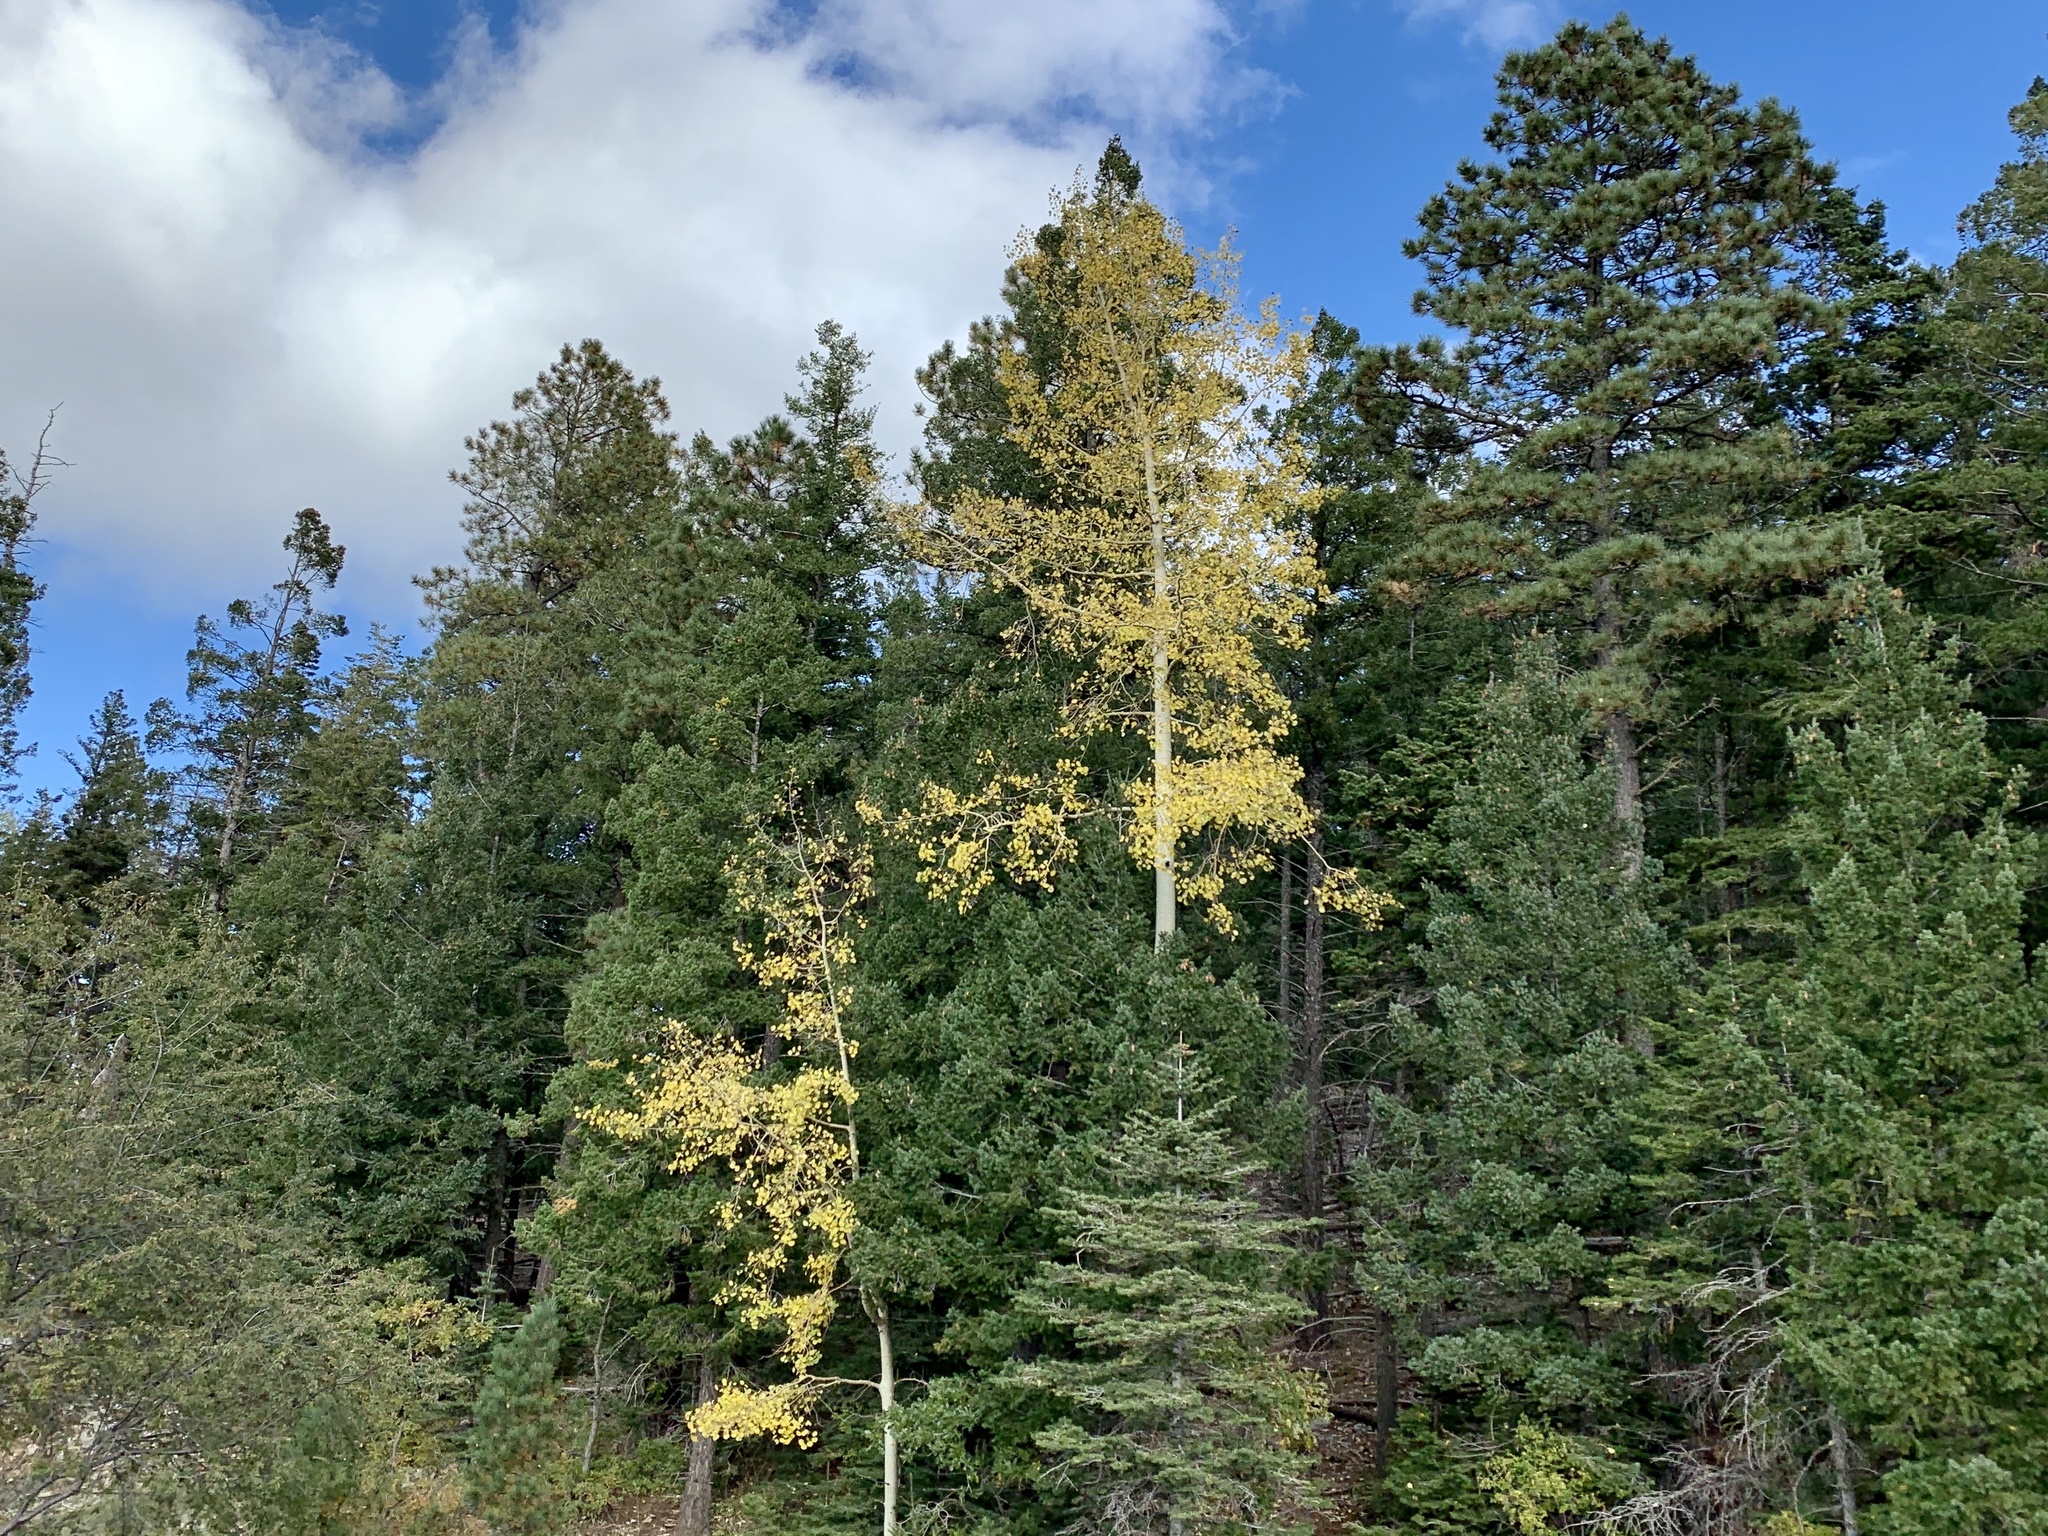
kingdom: Plantae
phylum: Tracheophyta
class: Magnoliopsida
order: Malpighiales
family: Salicaceae
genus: Populus
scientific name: Populus tremuloides
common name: Quaking aspen
